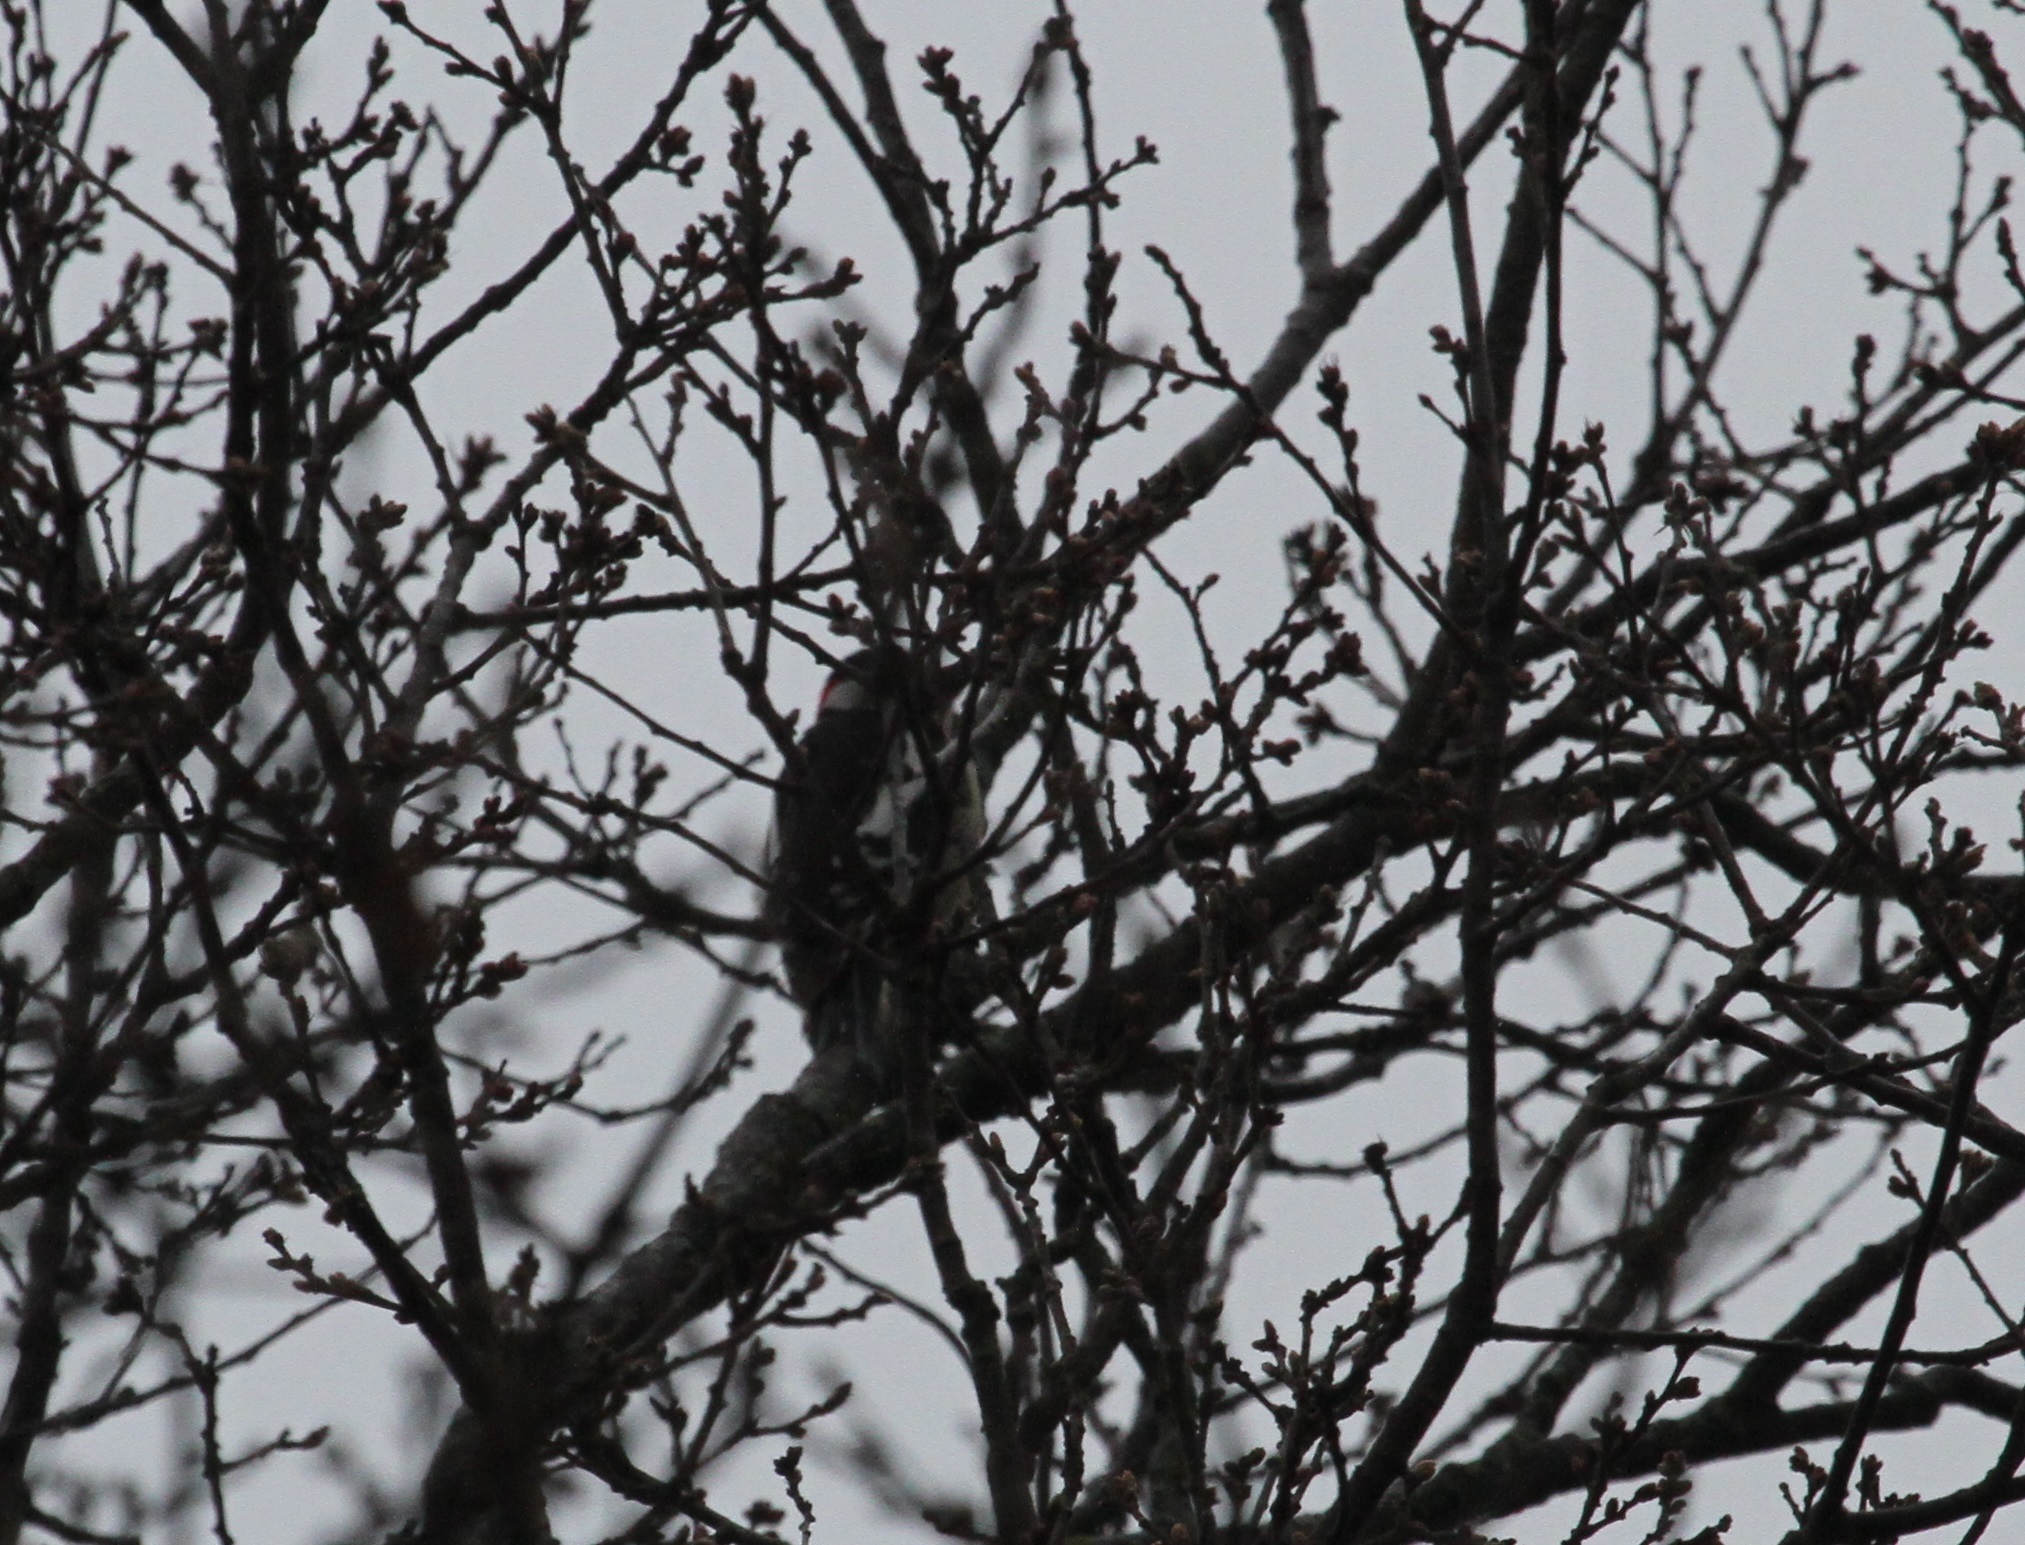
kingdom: Animalia
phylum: Chordata
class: Aves
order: Piciformes
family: Picidae
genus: Dendrocopos
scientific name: Dendrocopos major
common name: Great spotted woodpecker
